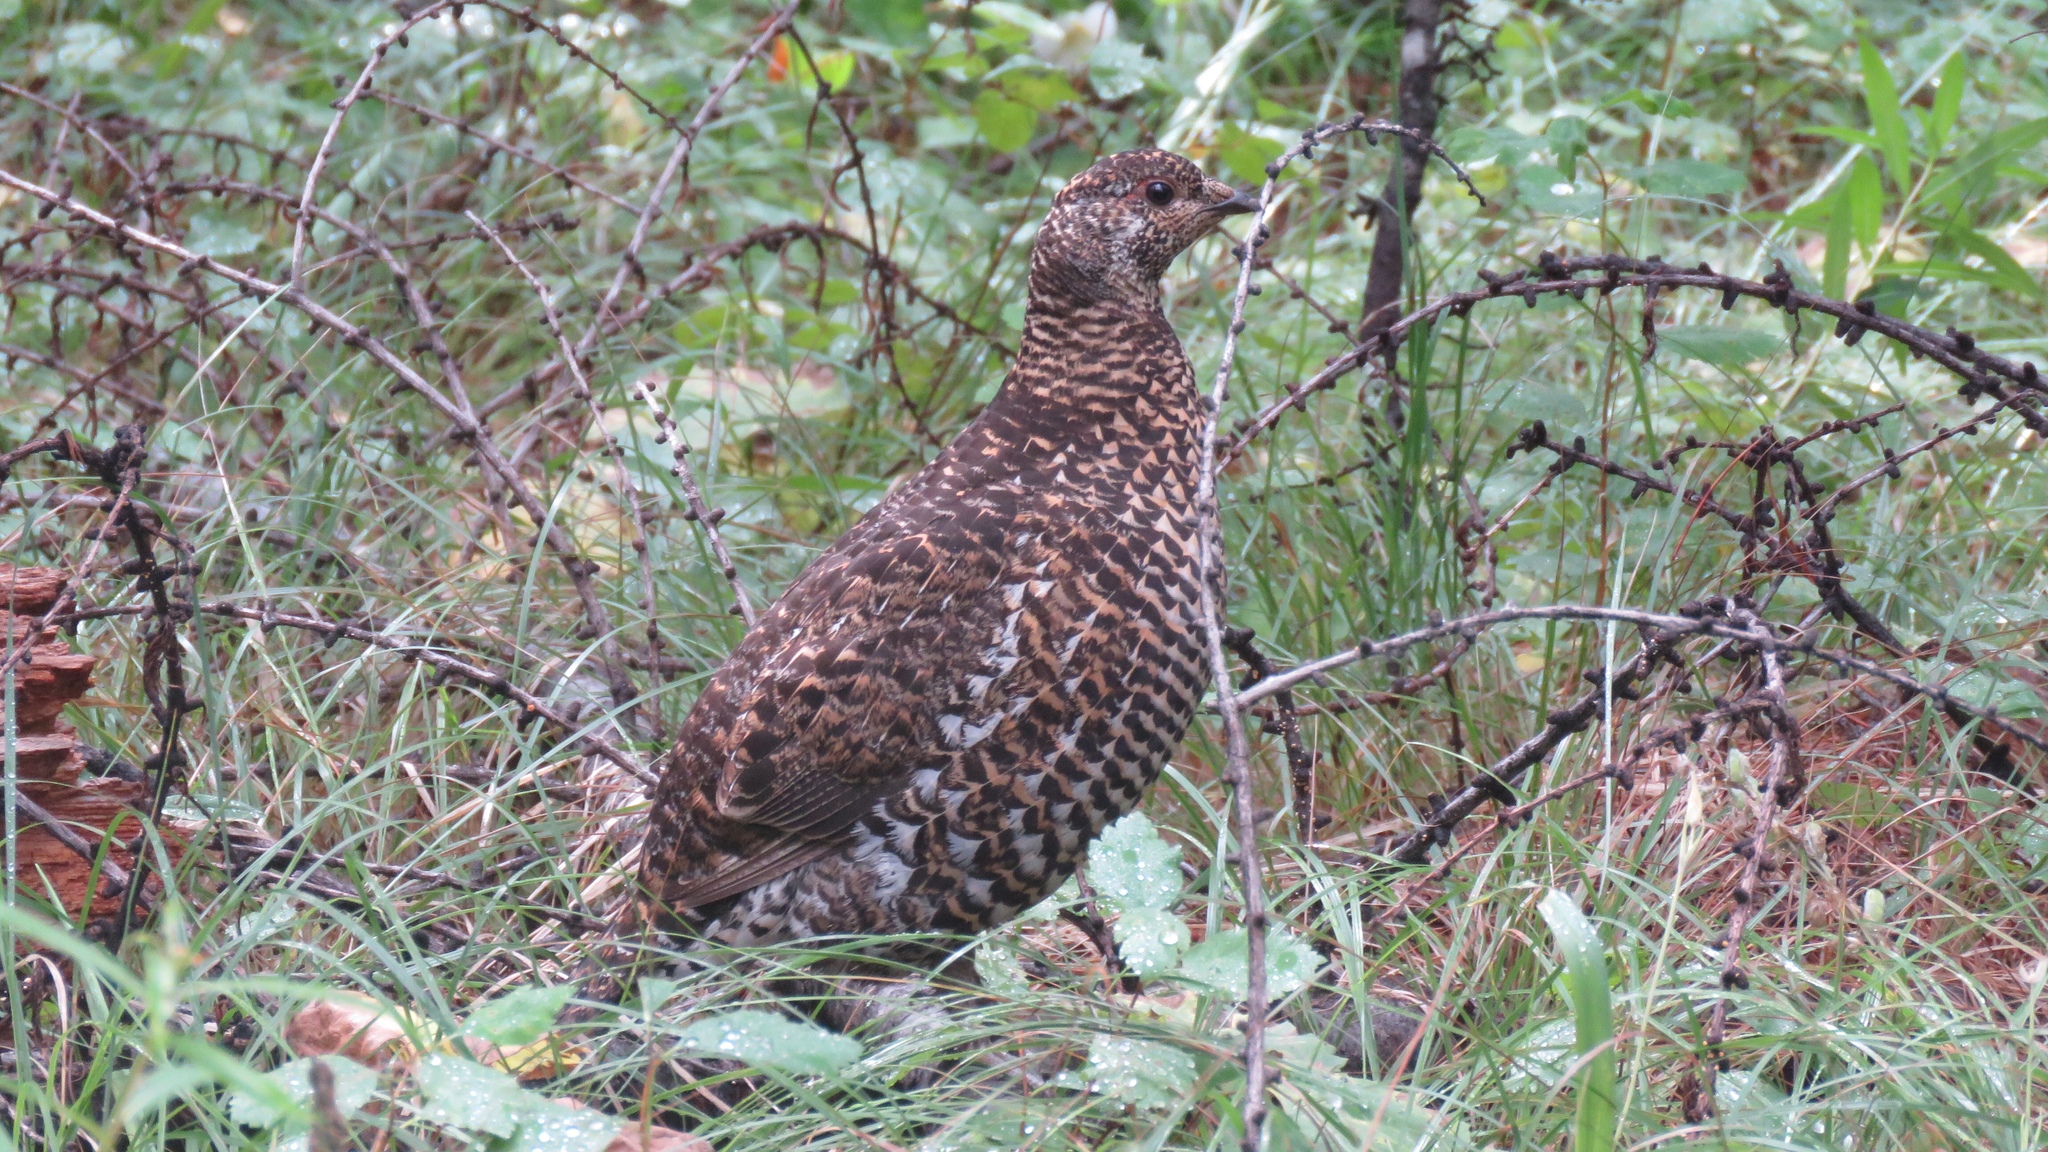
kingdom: Animalia
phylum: Chordata
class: Aves
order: Galliformes
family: Phasianidae
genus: Canachites
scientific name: Canachites canadensis
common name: Spruce grouse
